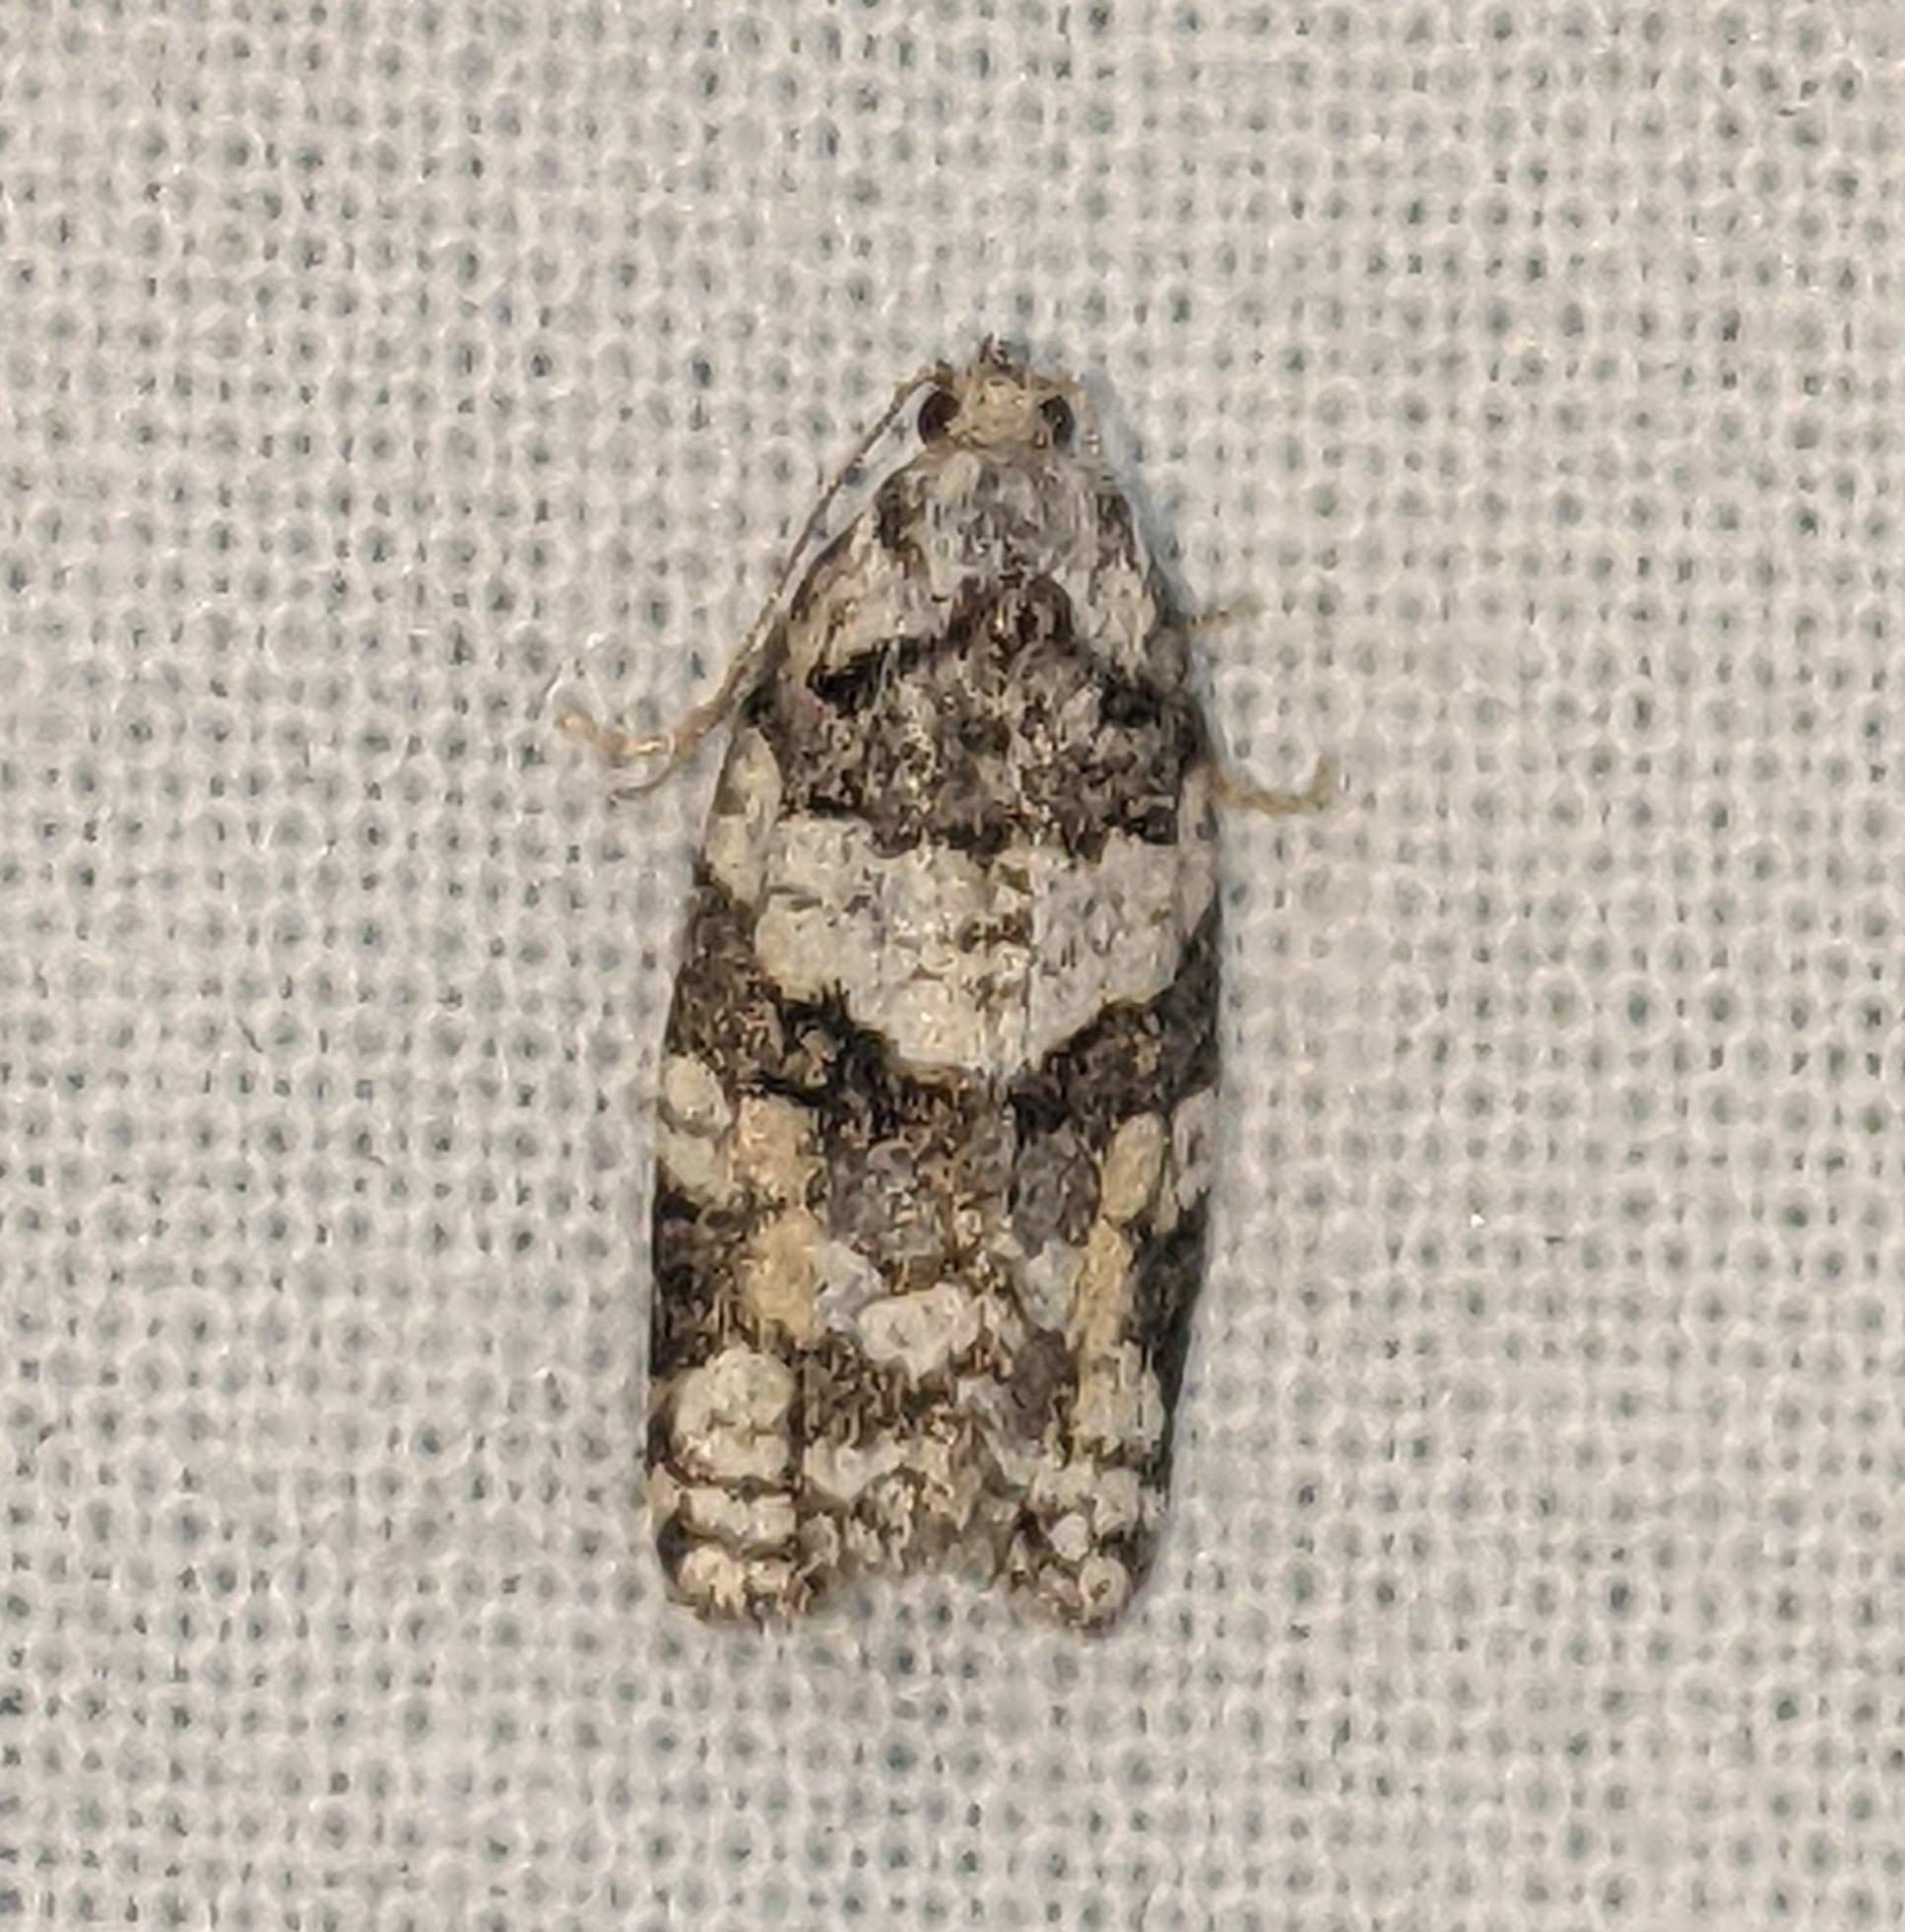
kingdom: Animalia
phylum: Arthropoda
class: Insecta
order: Lepidoptera
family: Tortricidae
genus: Argyrotaenia
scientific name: Argyrotaenia provana
